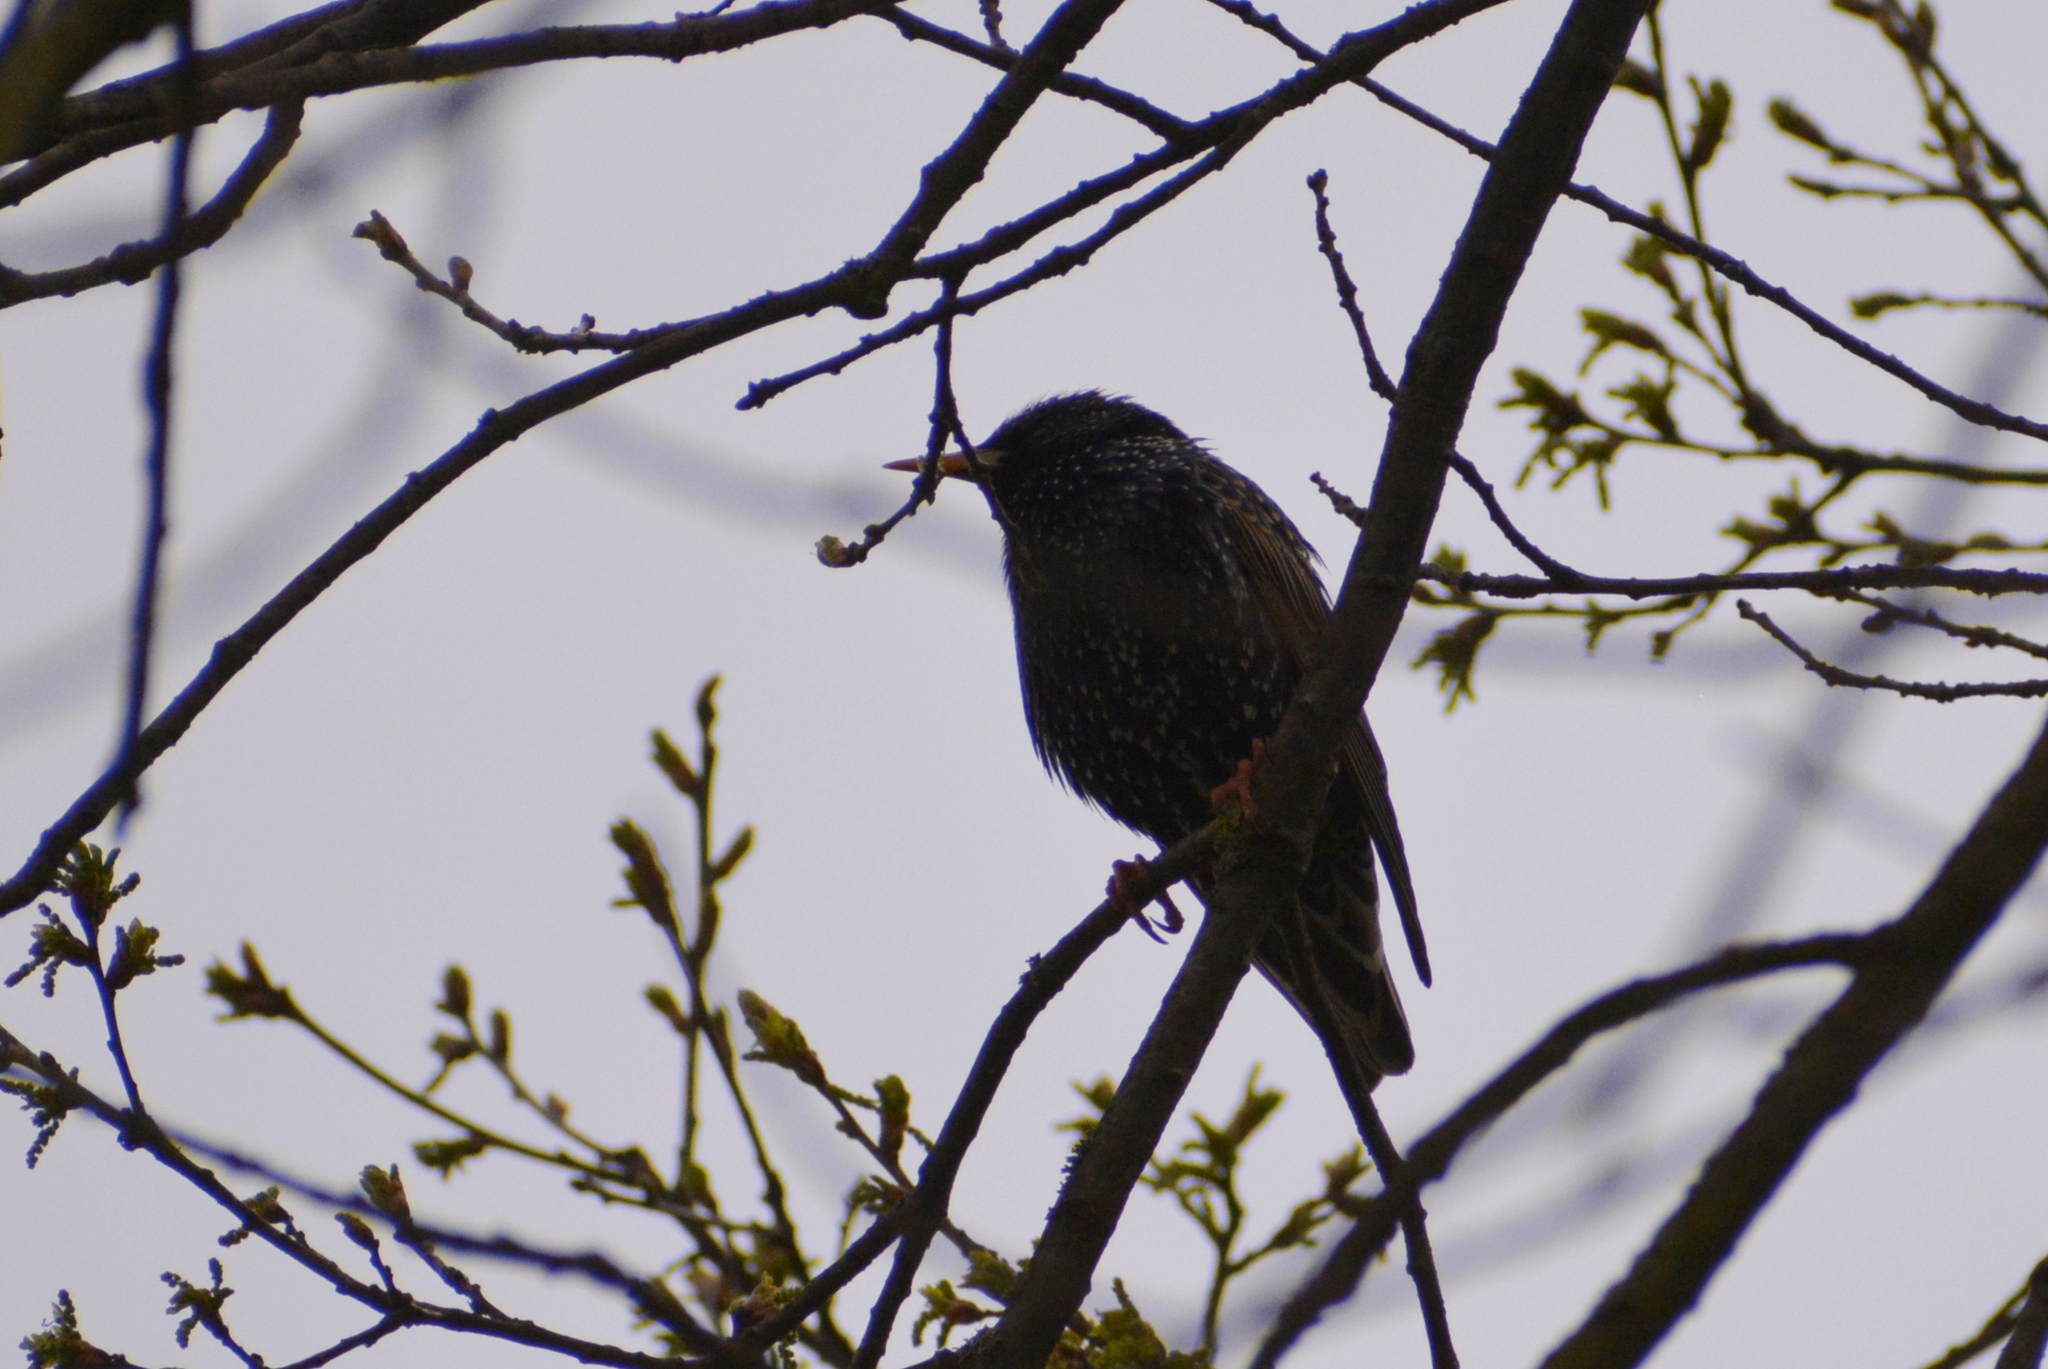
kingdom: Animalia
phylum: Chordata
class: Aves
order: Passeriformes
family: Sturnidae
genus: Sturnus
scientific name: Sturnus vulgaris
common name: Common starling
